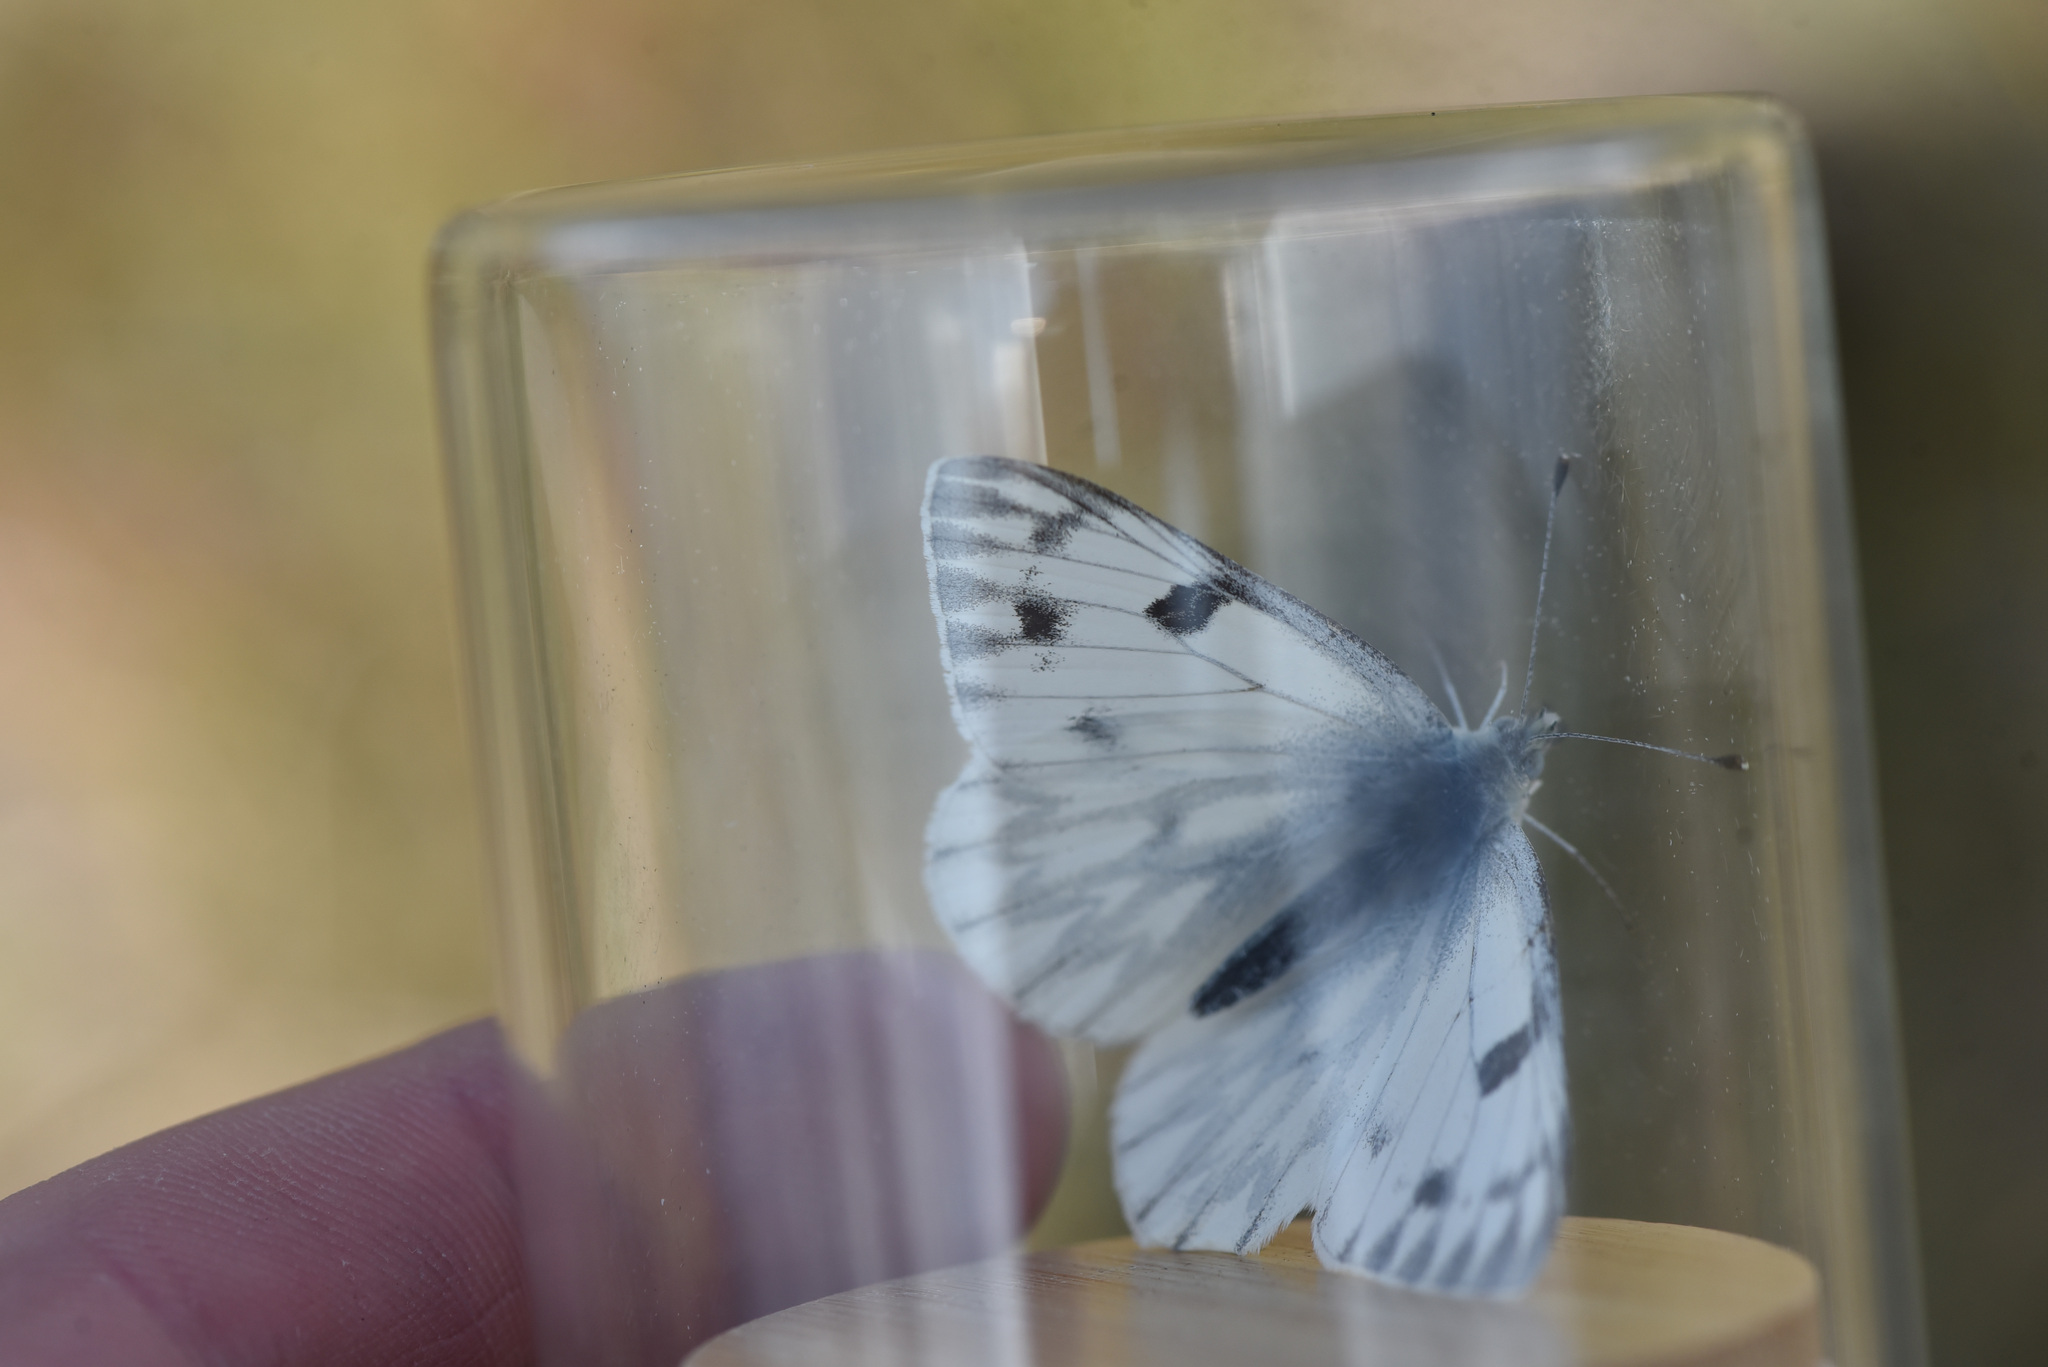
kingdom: Animalia
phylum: Arthropoda
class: Insecta
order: Lepidoptera
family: Pieridae
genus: Pontia
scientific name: Pontia occidentalis
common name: Western white
